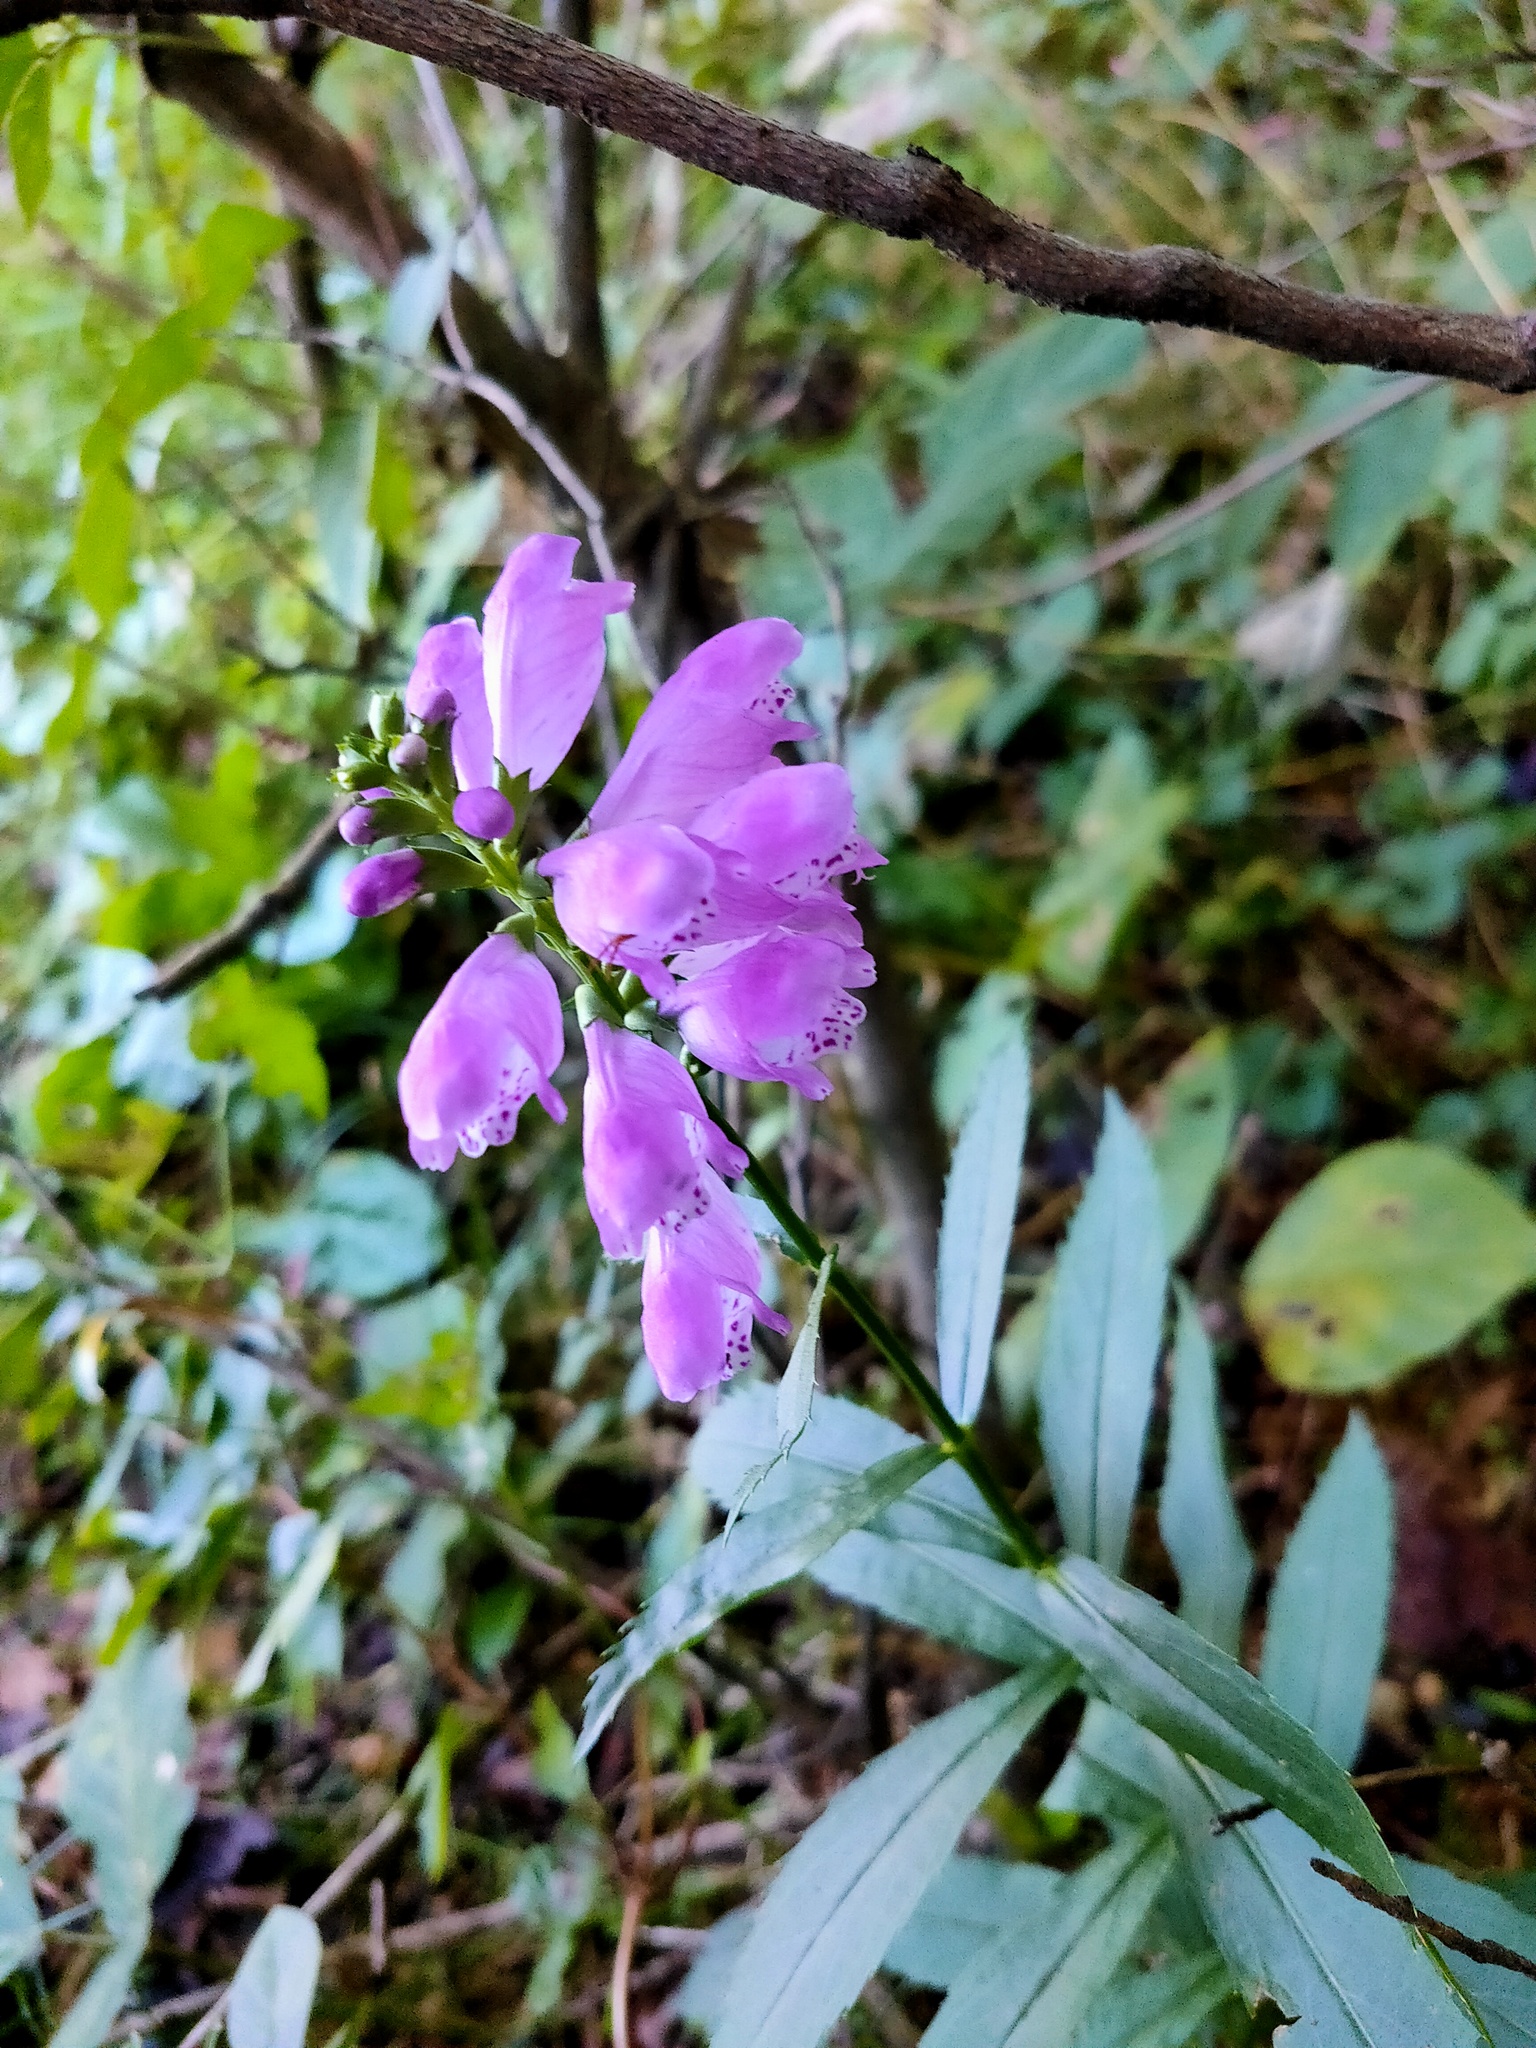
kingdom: Plantae
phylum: Tracheophyta
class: Magnoliopsida
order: Lamiales
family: Lamiaceae
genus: Physostegia
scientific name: Physostegia virginiana
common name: Obedient-plant
